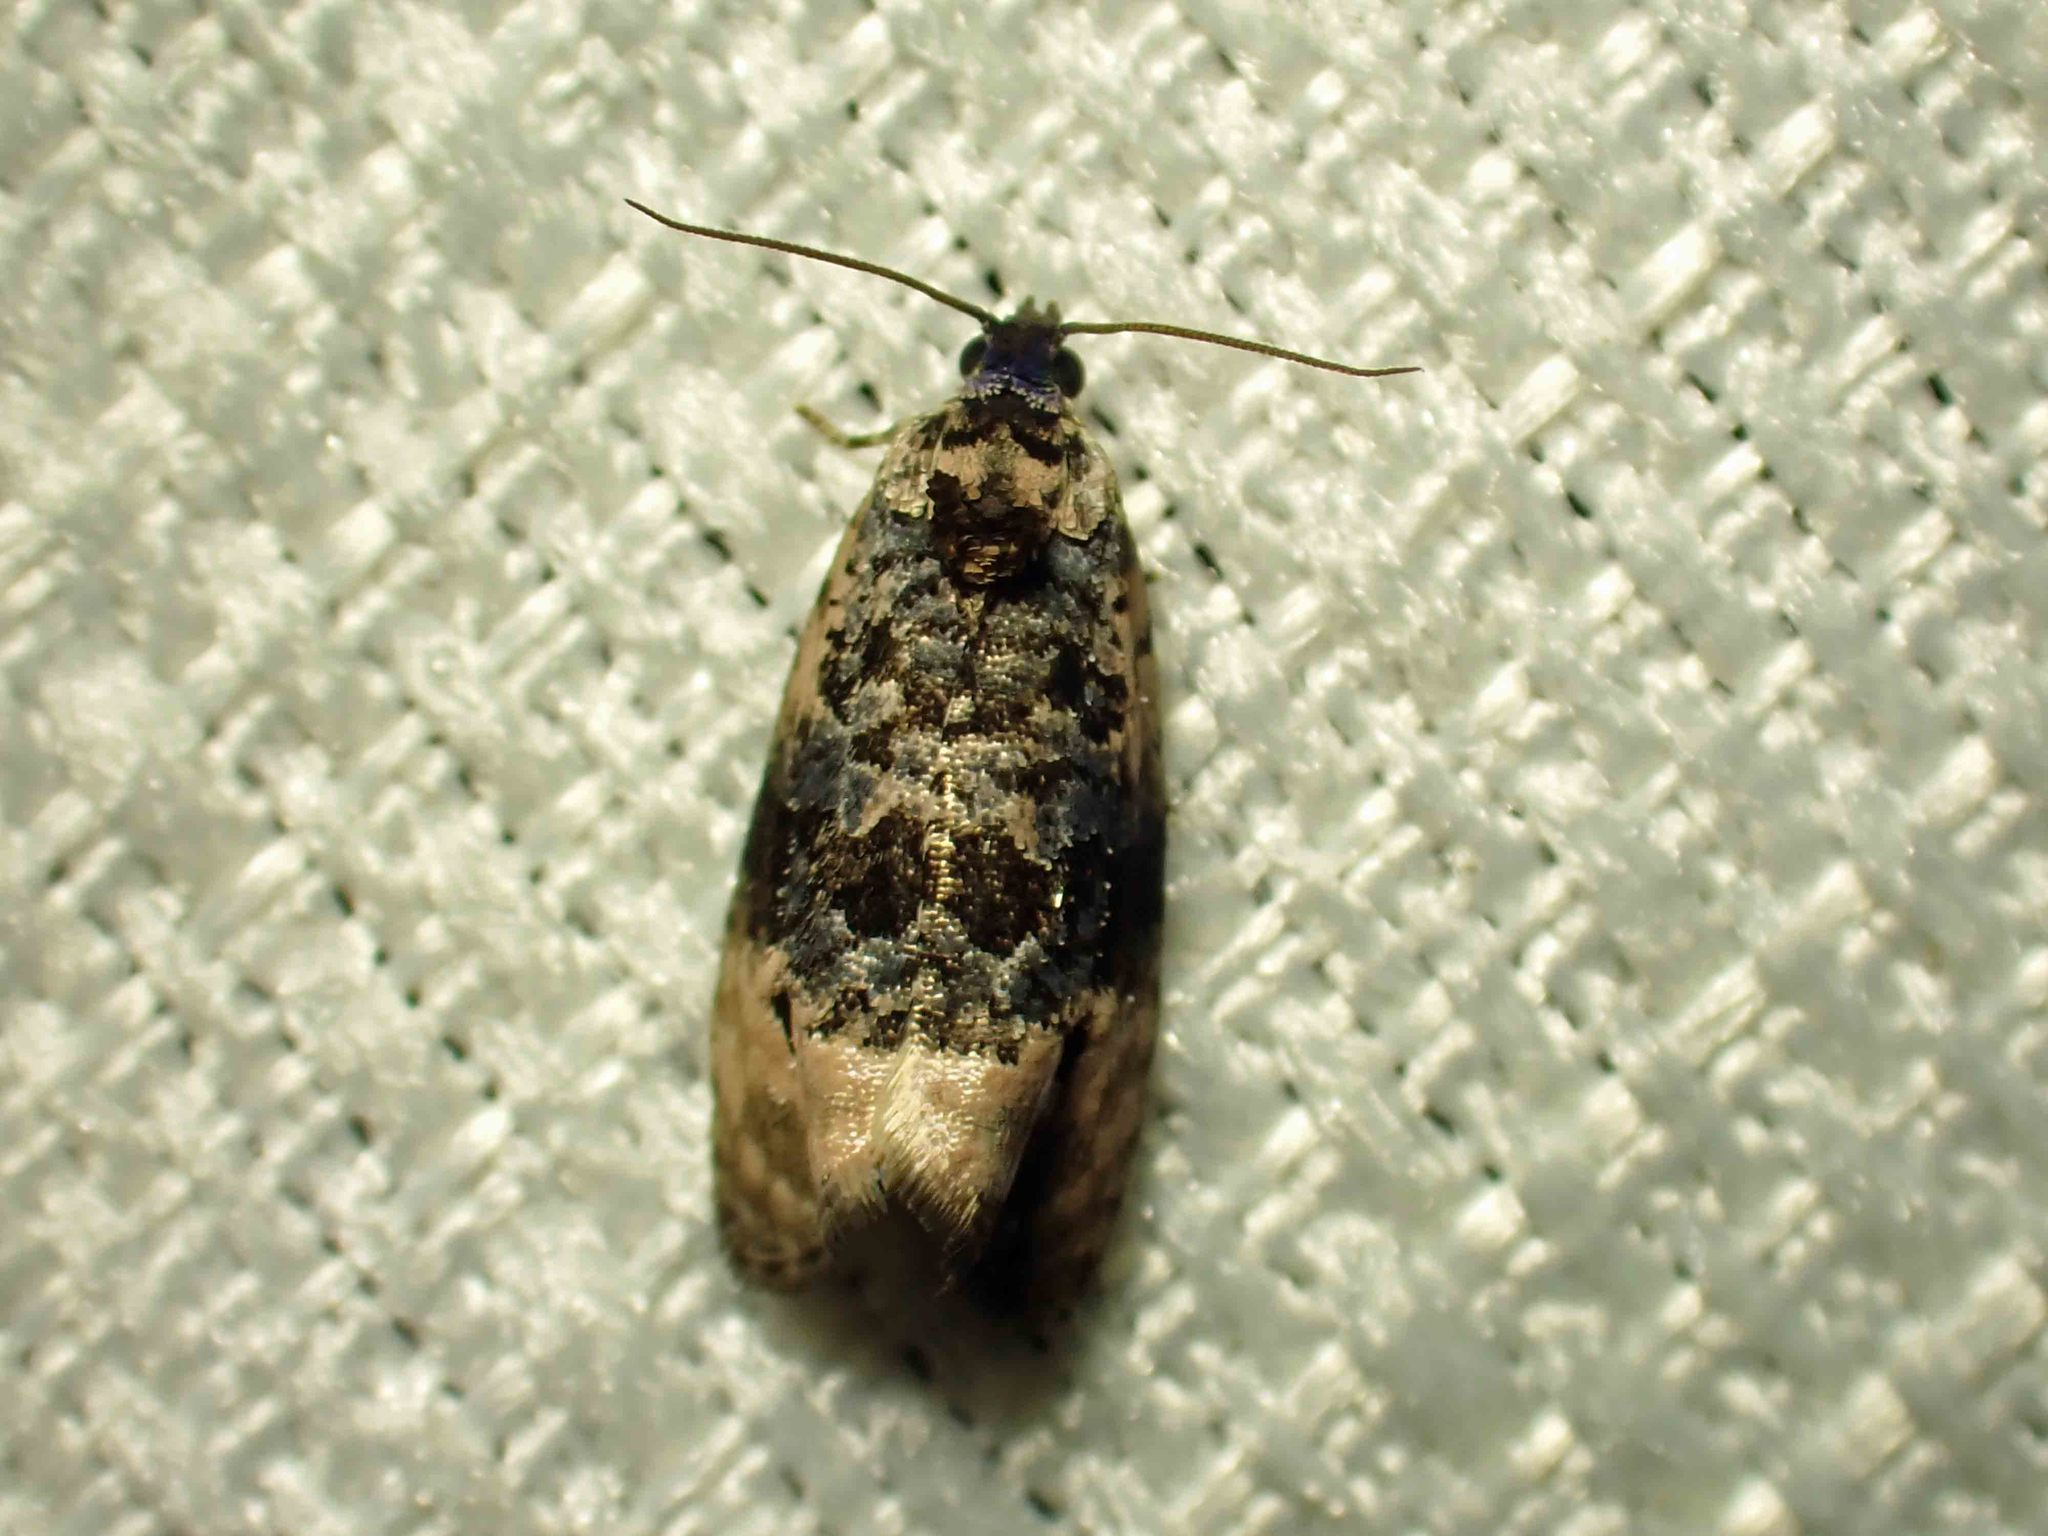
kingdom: Animalia
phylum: Arthropoda
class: Insecta
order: Lepidoptera
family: Tortricidae
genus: Hedya
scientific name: Hedya separatana
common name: Pink-washed leafroller moth
